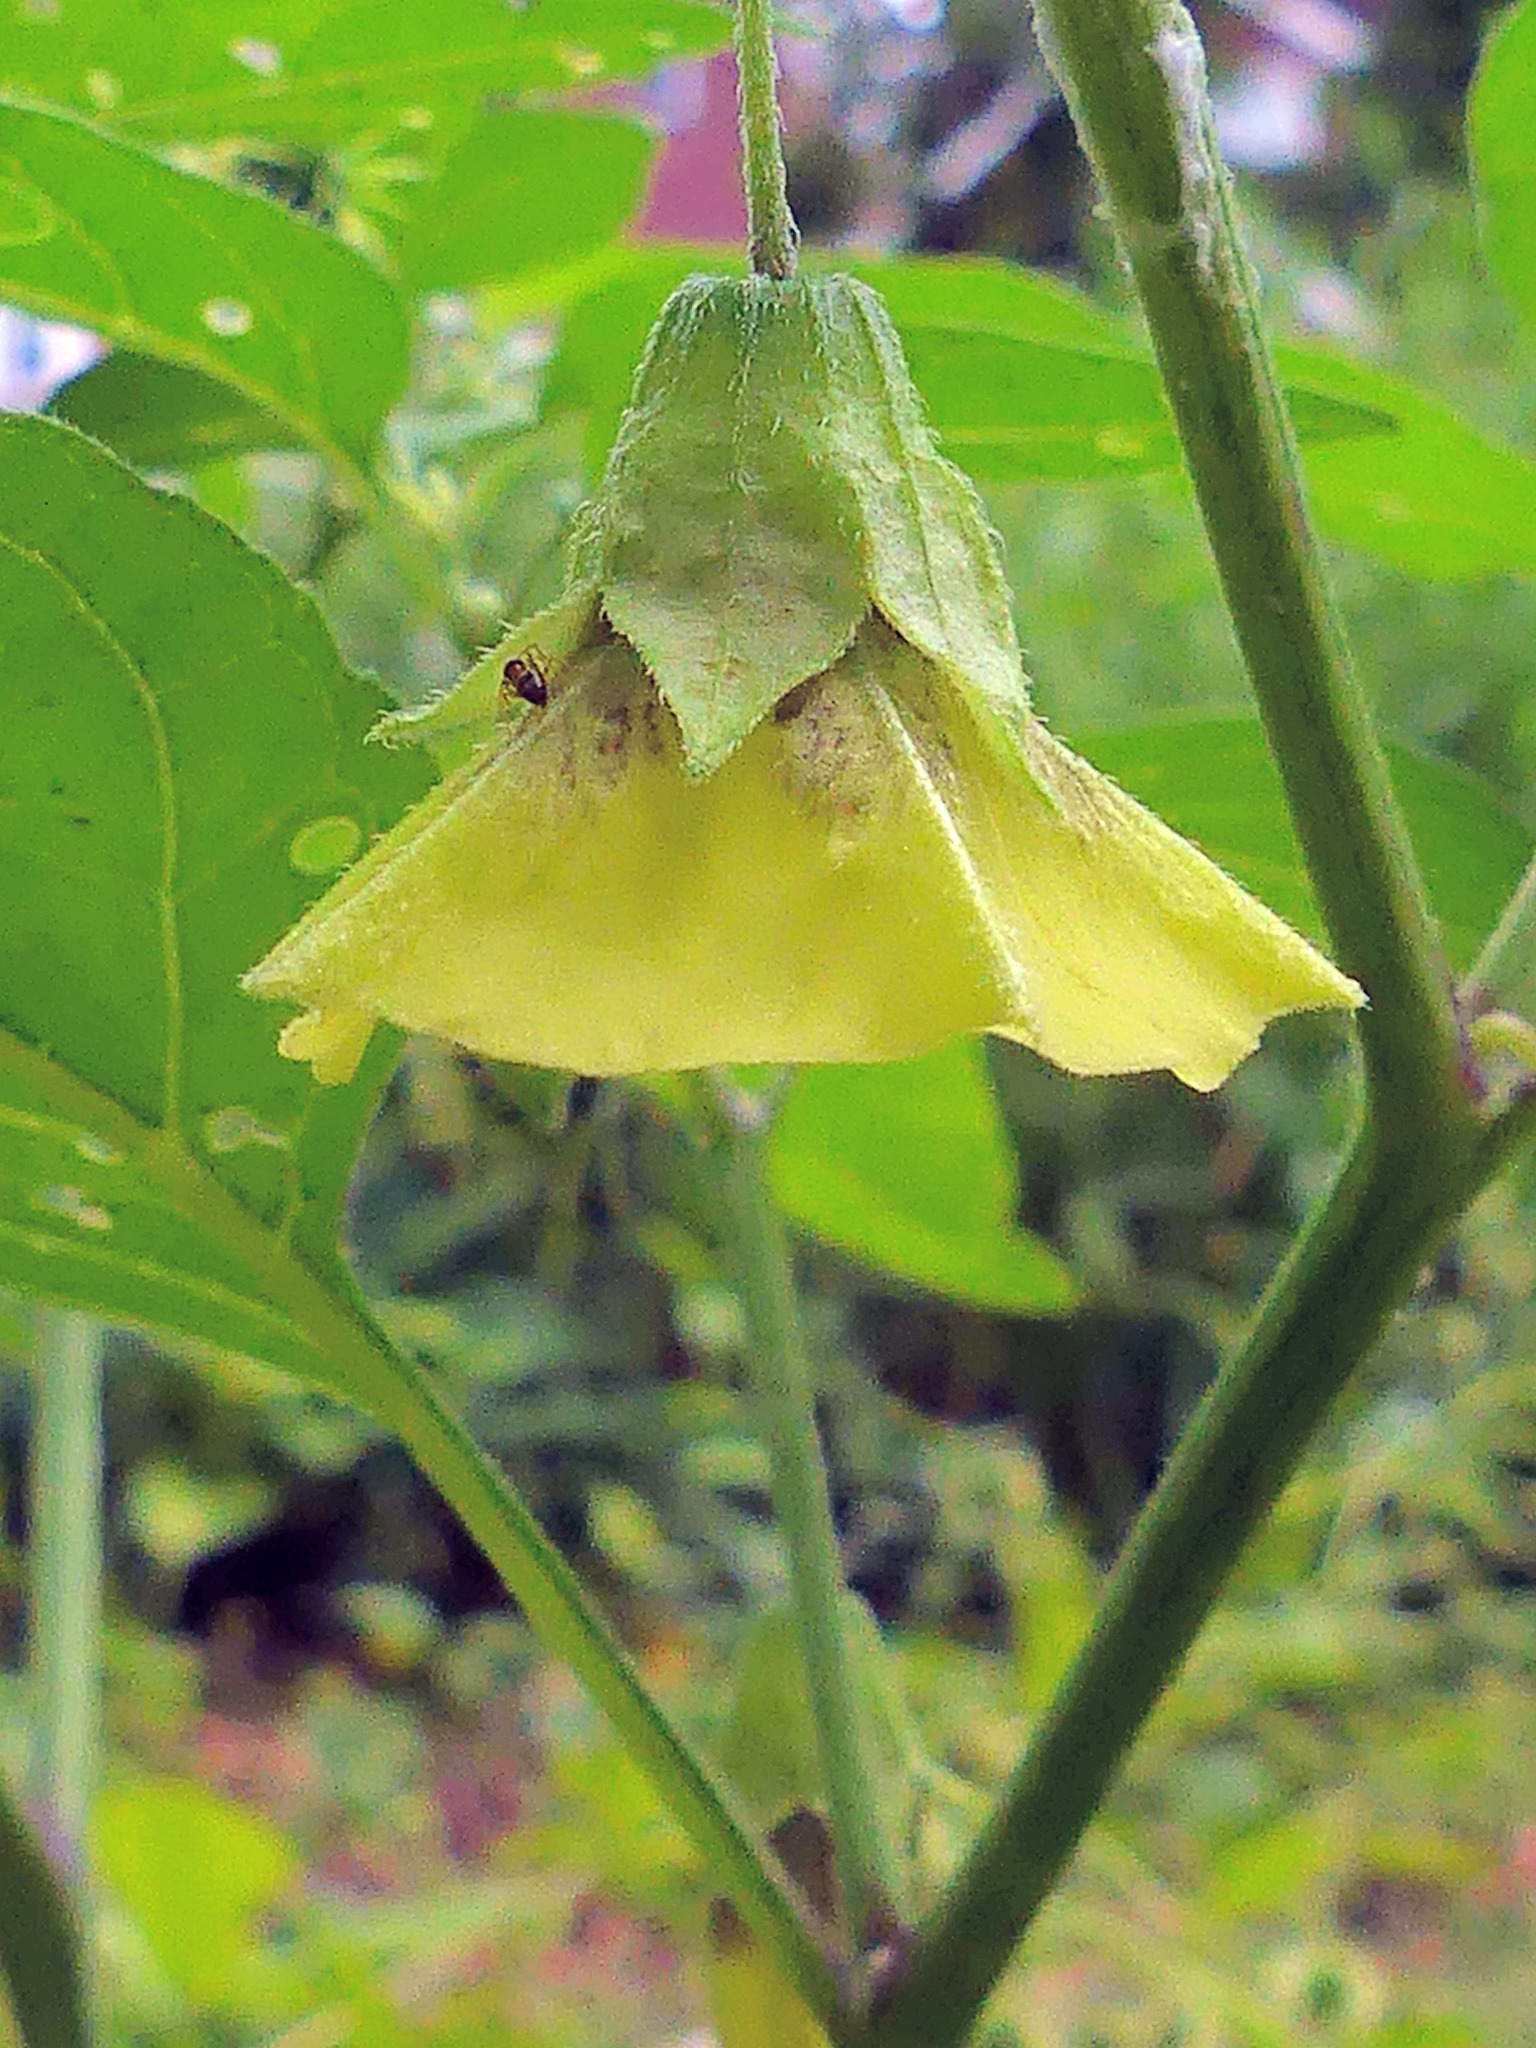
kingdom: Plantae
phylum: Tracheophyta
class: Magnoliopsida
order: Solanales
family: Solanaceae
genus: Physalis
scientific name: Physalis longifolia
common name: Common ground-cherry
